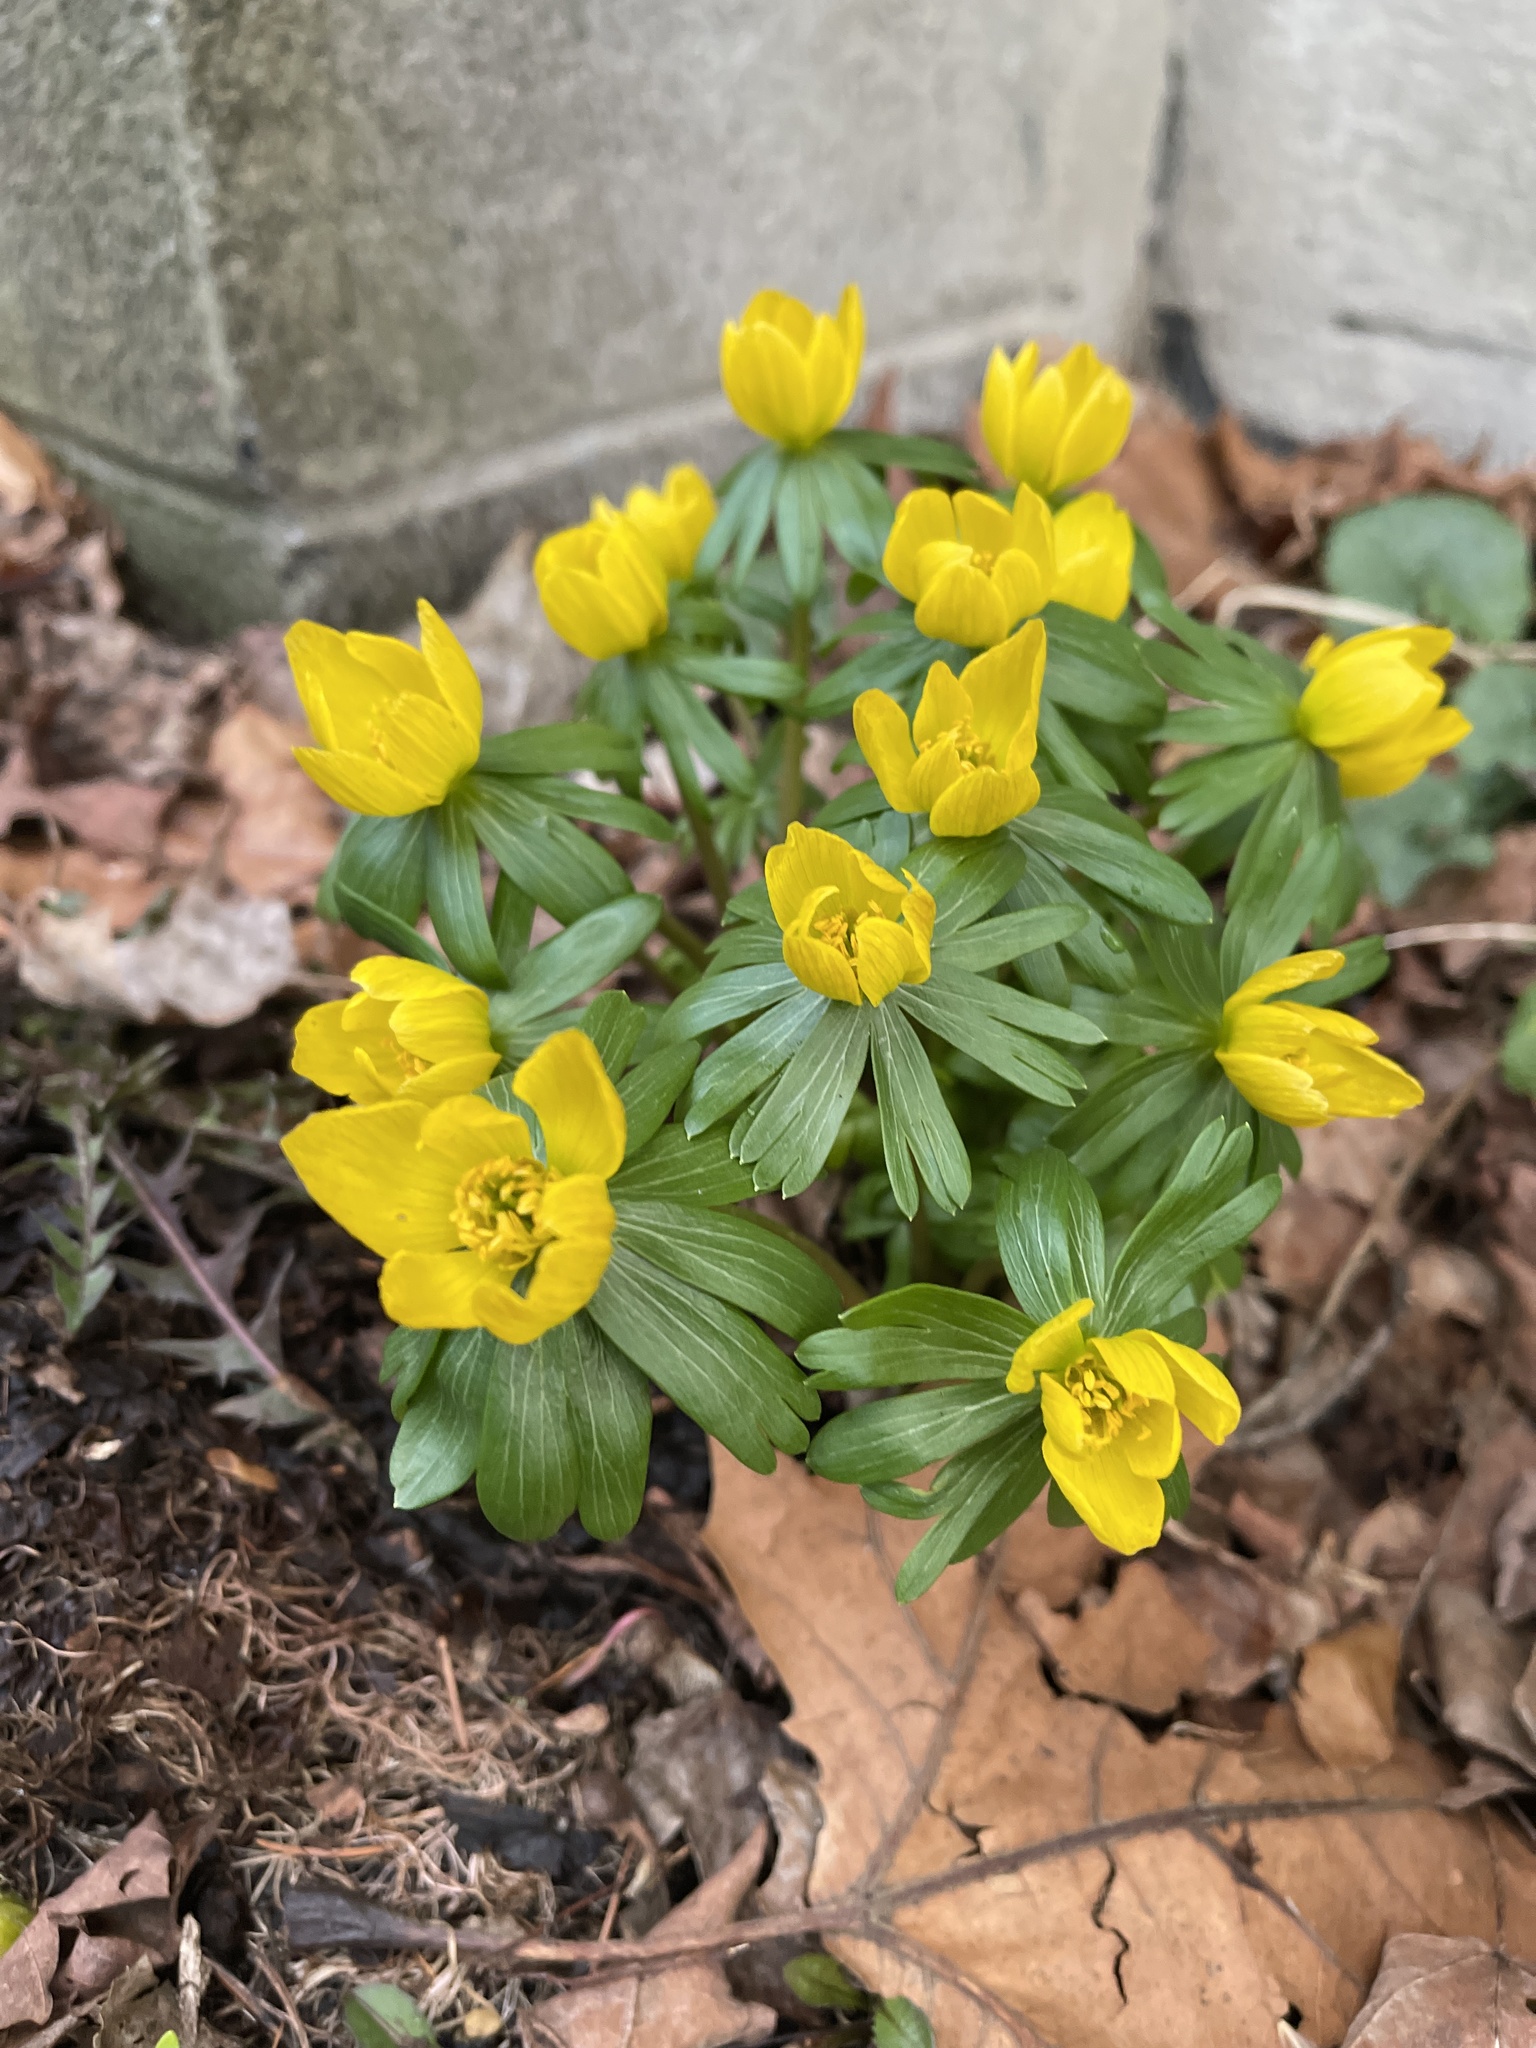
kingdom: Plantae
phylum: Tracheophyta
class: Magnoliopsida
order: Ranunculales
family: Ranunculaceae
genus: Eranthis
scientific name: Eranthis hyemalis
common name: Winter aconite
